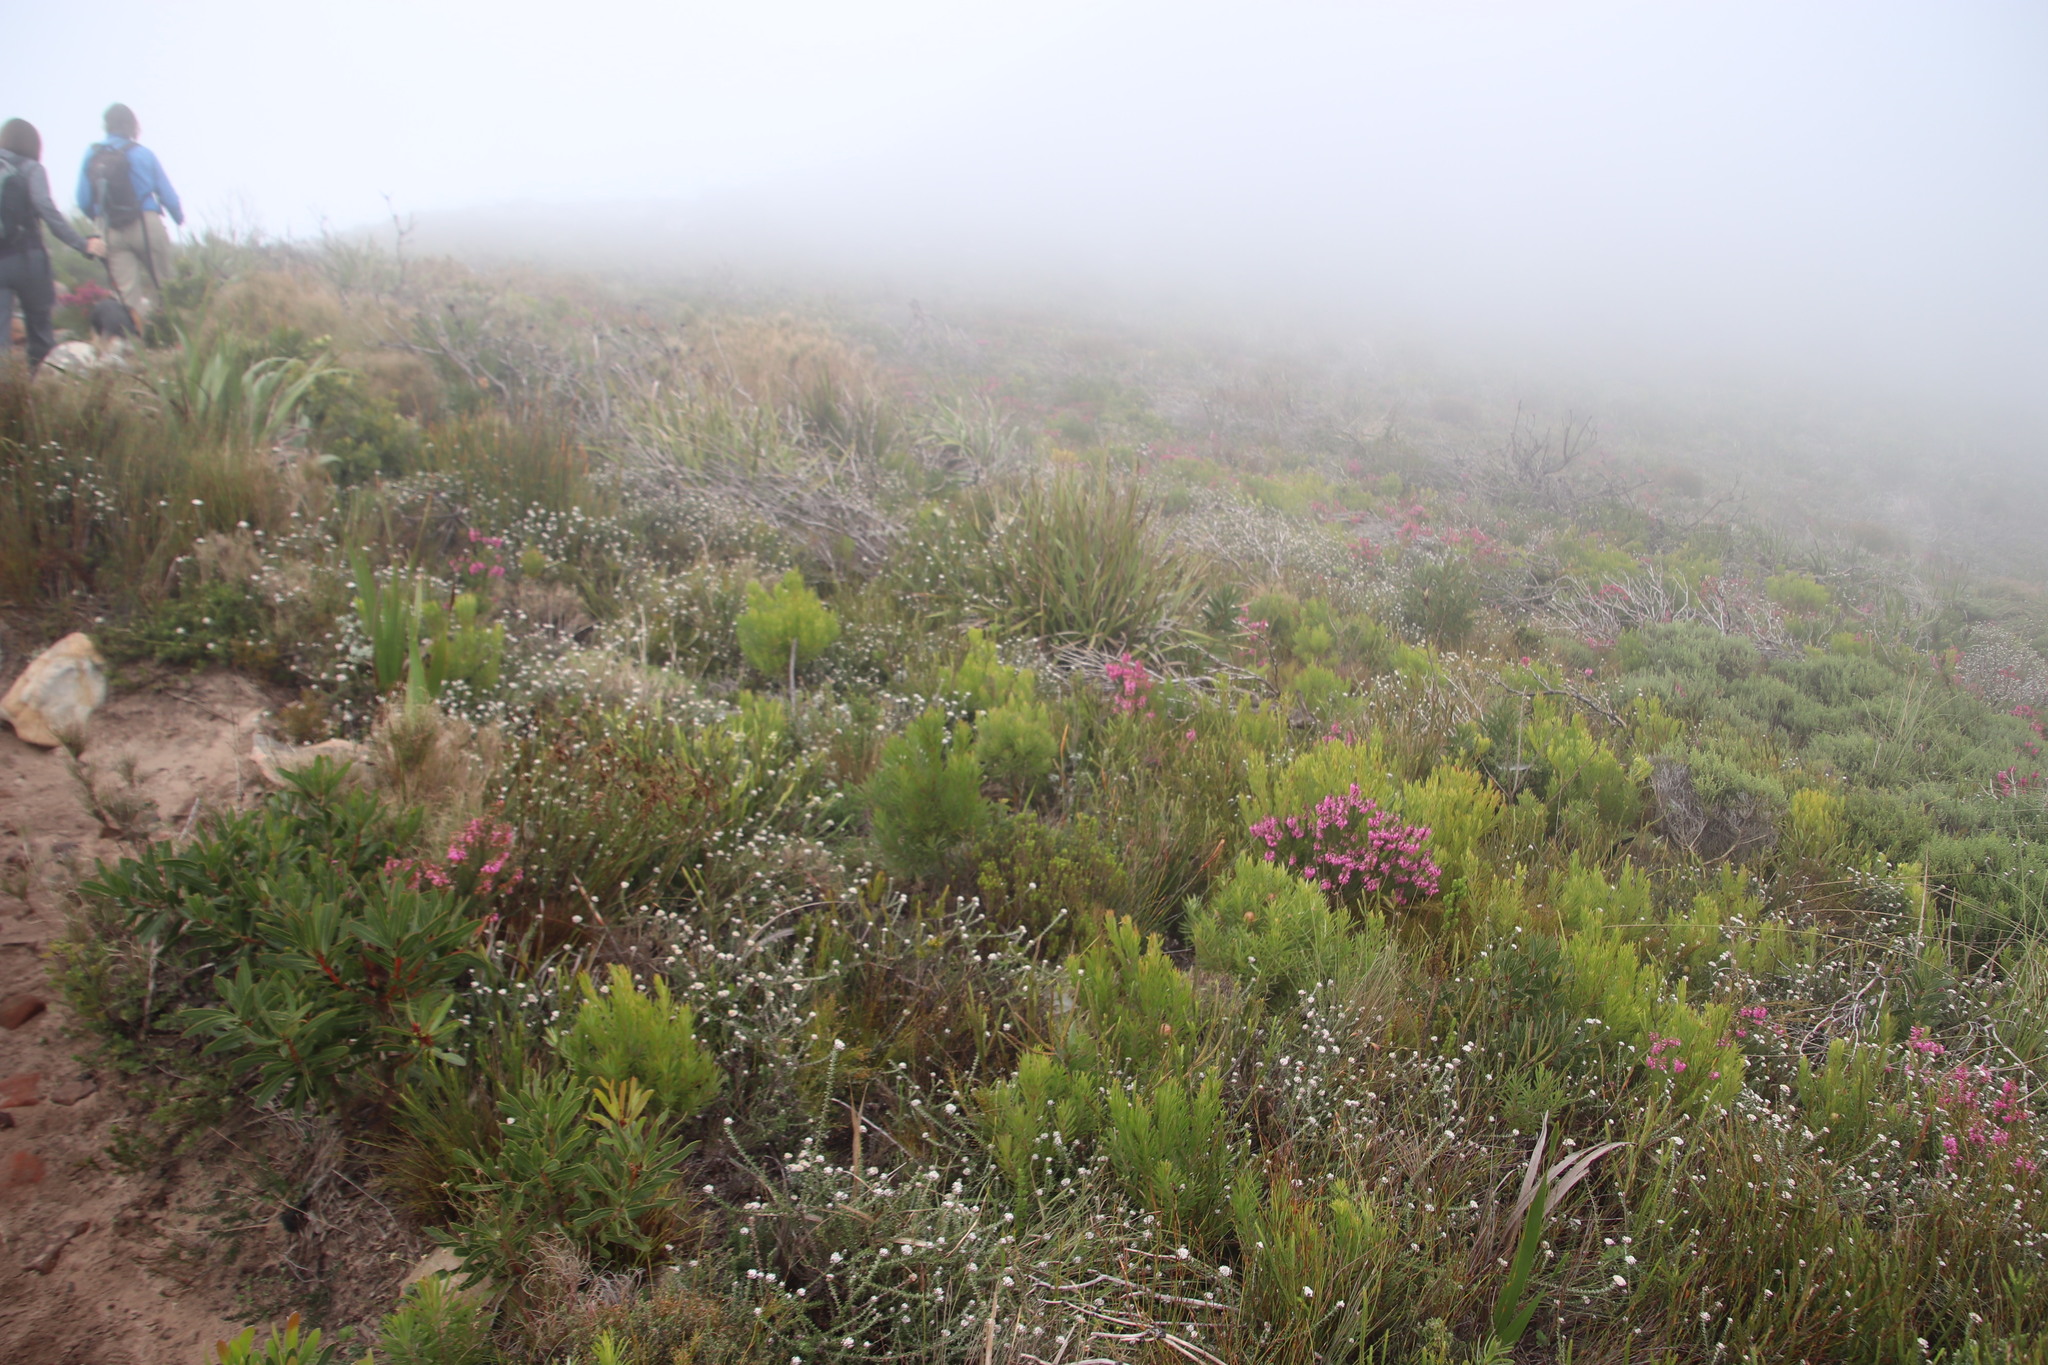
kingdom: Plantae
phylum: Tracheophyta
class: Magnoliopsida
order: Ericales
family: Ericaceae
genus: Erica
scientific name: Erica abietina
